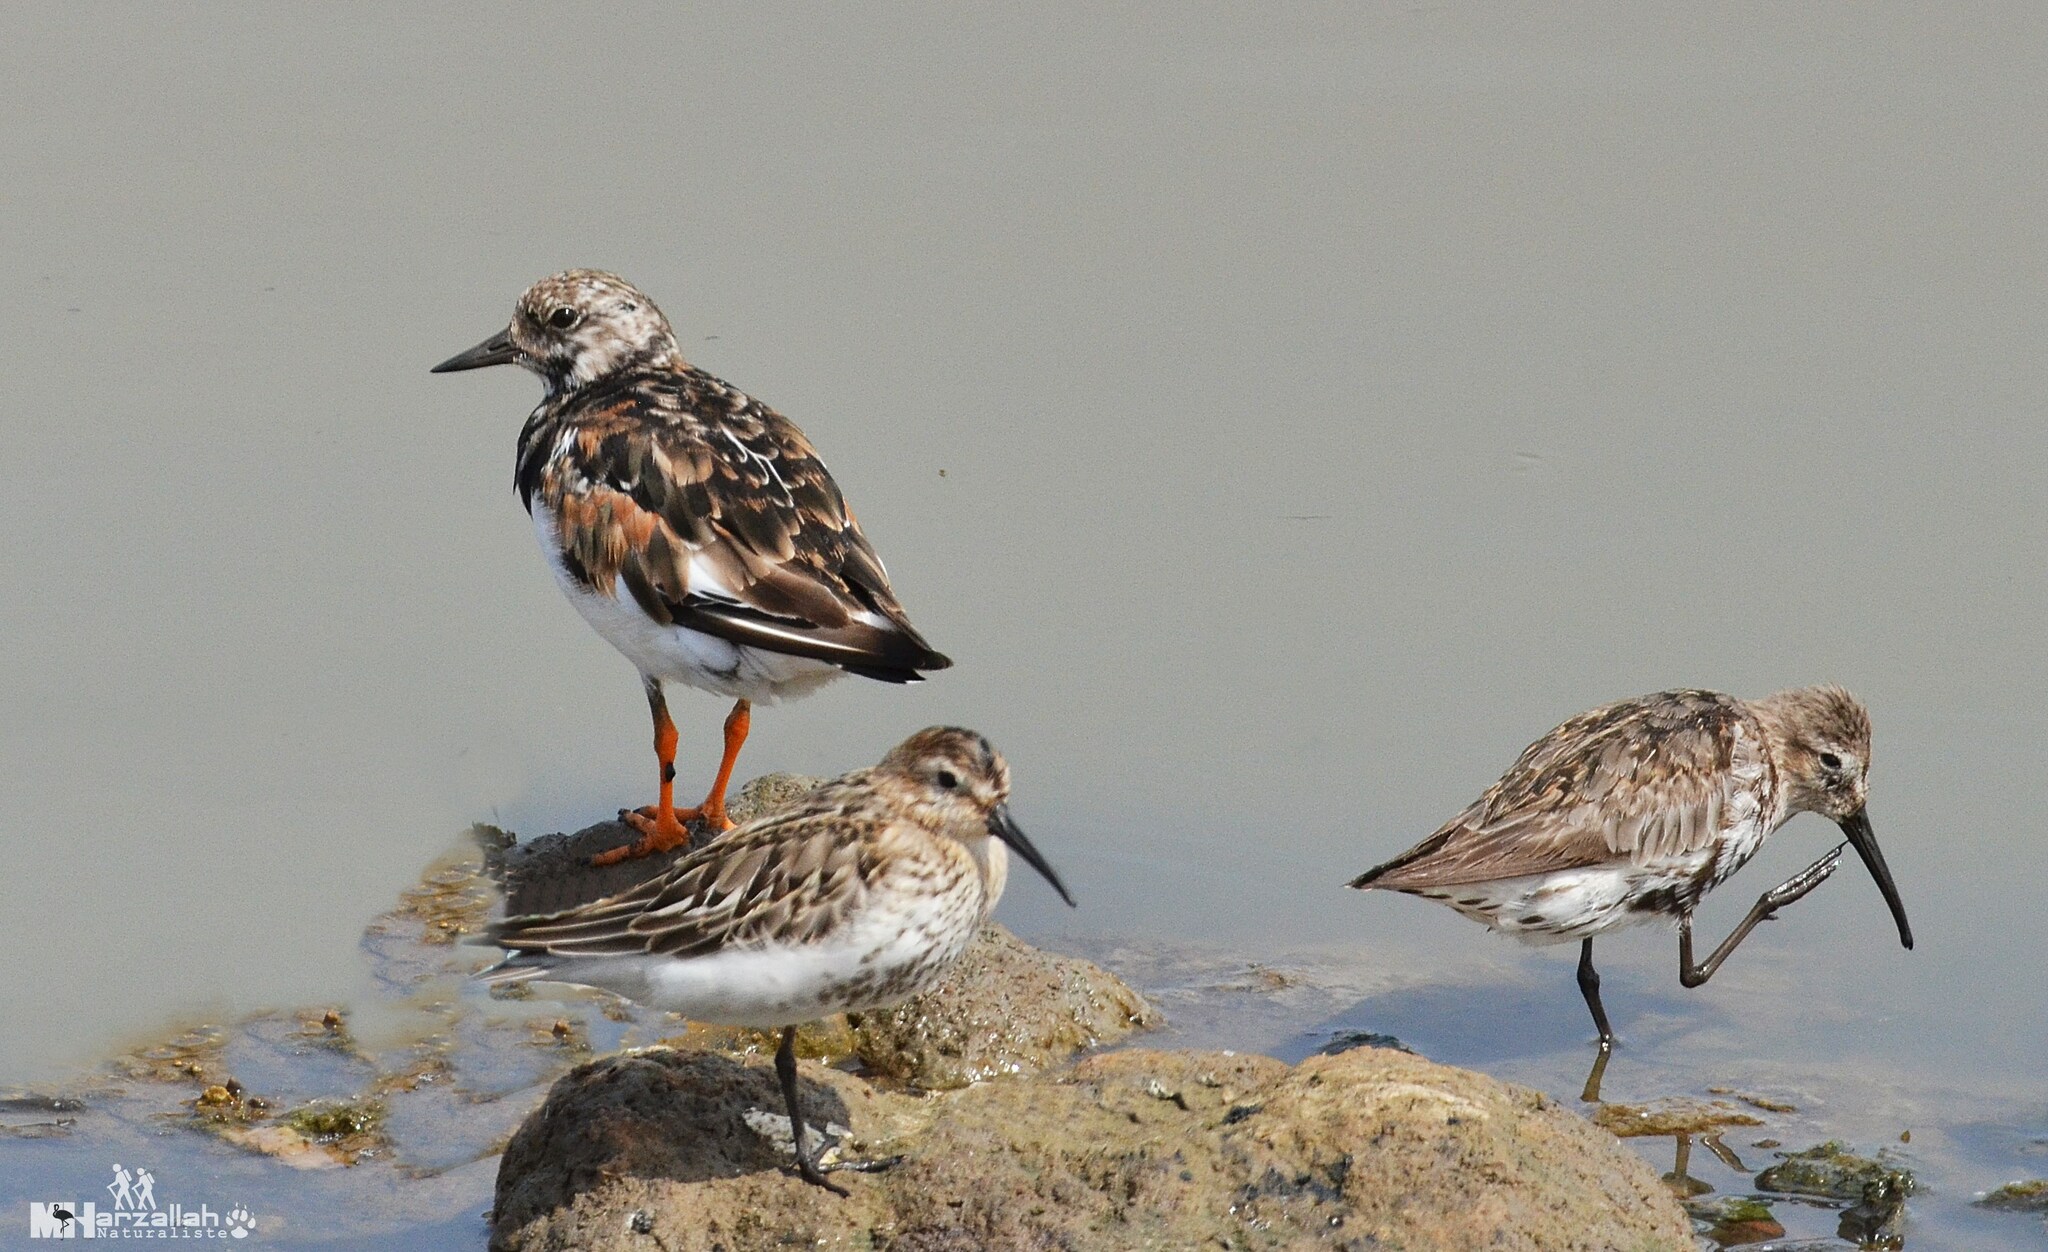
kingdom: Animalia
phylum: Chordata
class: Aves
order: Charadriiformes
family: Scolopacidae
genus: Arenaria
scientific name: Arenaria interpres
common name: Ruddy turnstone
